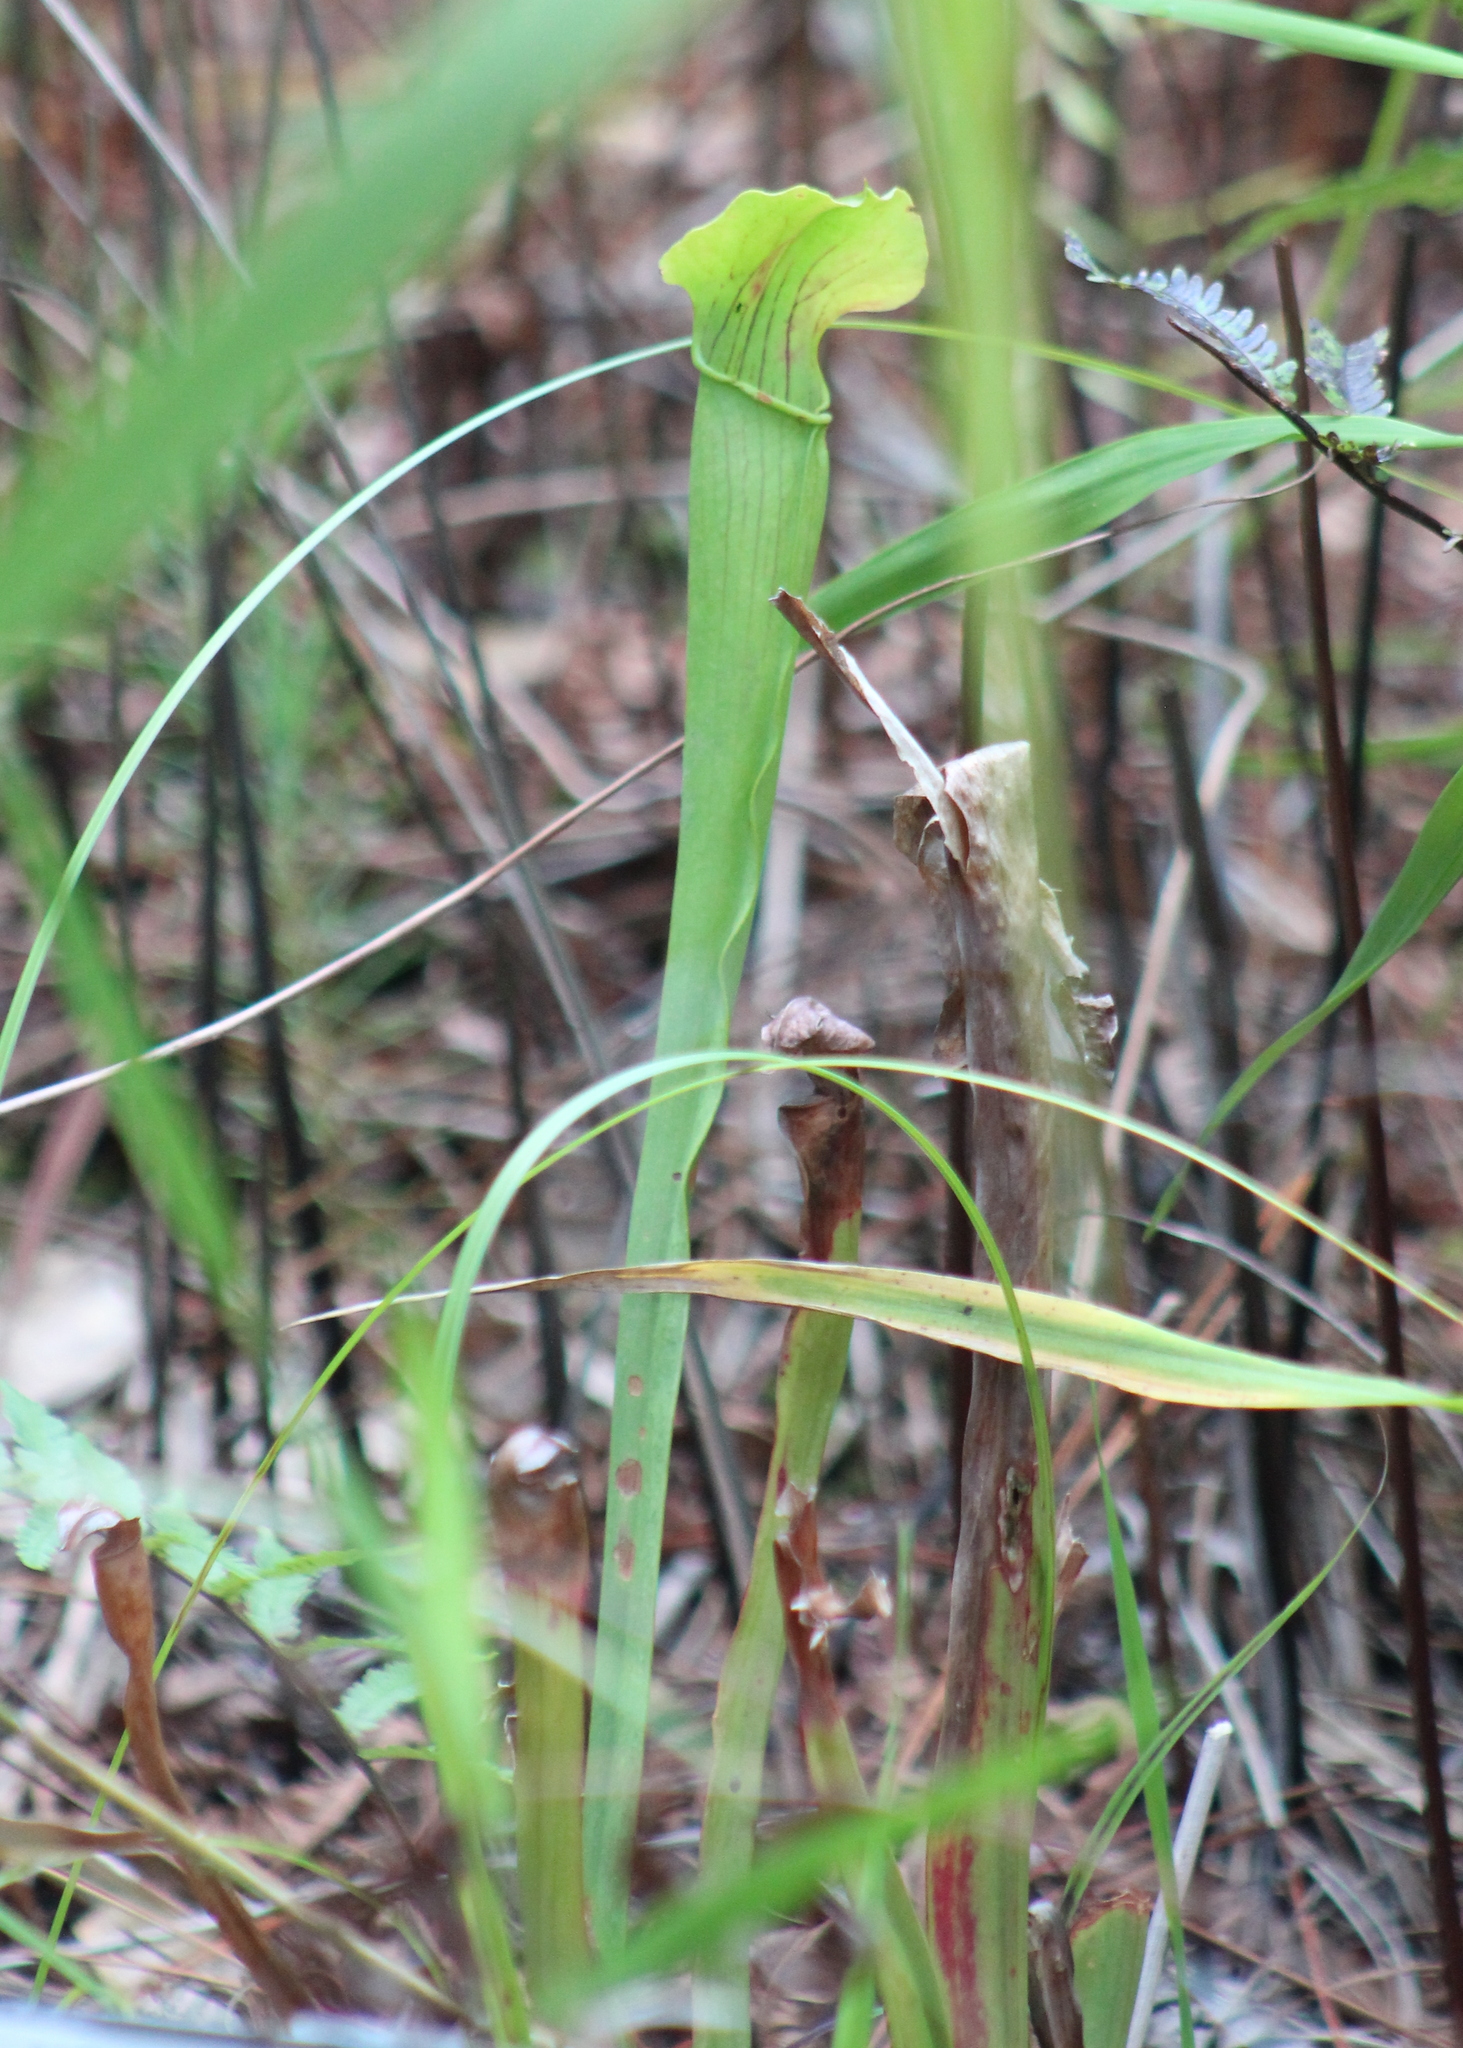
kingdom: Plantae
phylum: Tracheophyta
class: Magnoliopsida
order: Ericales
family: Sarraceniaceae
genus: Sarracenia
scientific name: Sarracenia rubra
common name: Sweet pitcherplant
